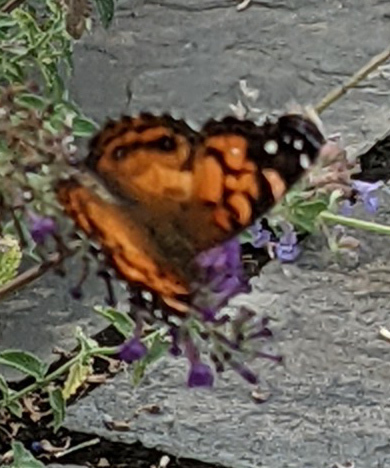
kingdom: Animalia
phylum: Arthropoda
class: Insecta
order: Lepidoptera
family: Nymphalidae
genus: Vanessa
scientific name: Vanessa virginiensis
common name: American lady
